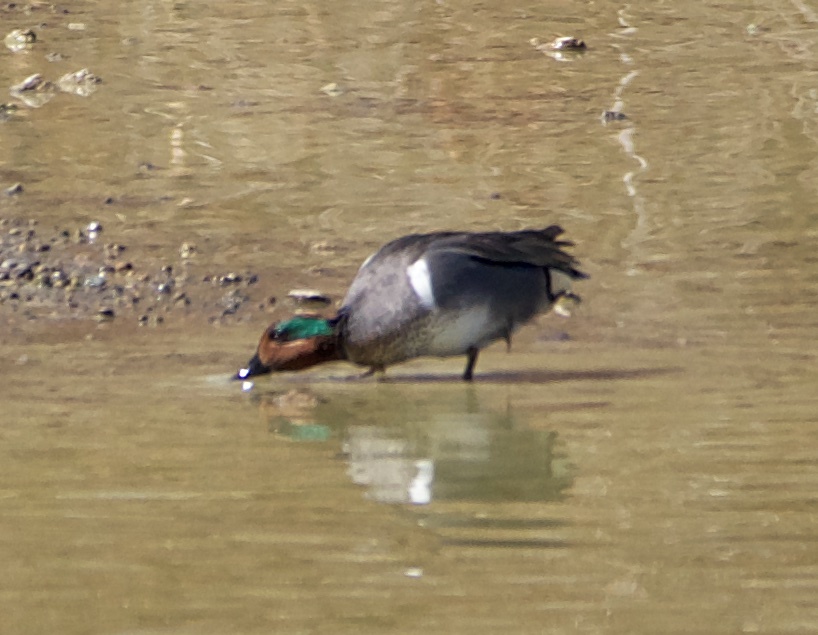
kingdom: Animalia
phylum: Chordata
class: Aves
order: Anseriformes
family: Anatidae
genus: Anas
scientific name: Anas crecca
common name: Eurasian teal
